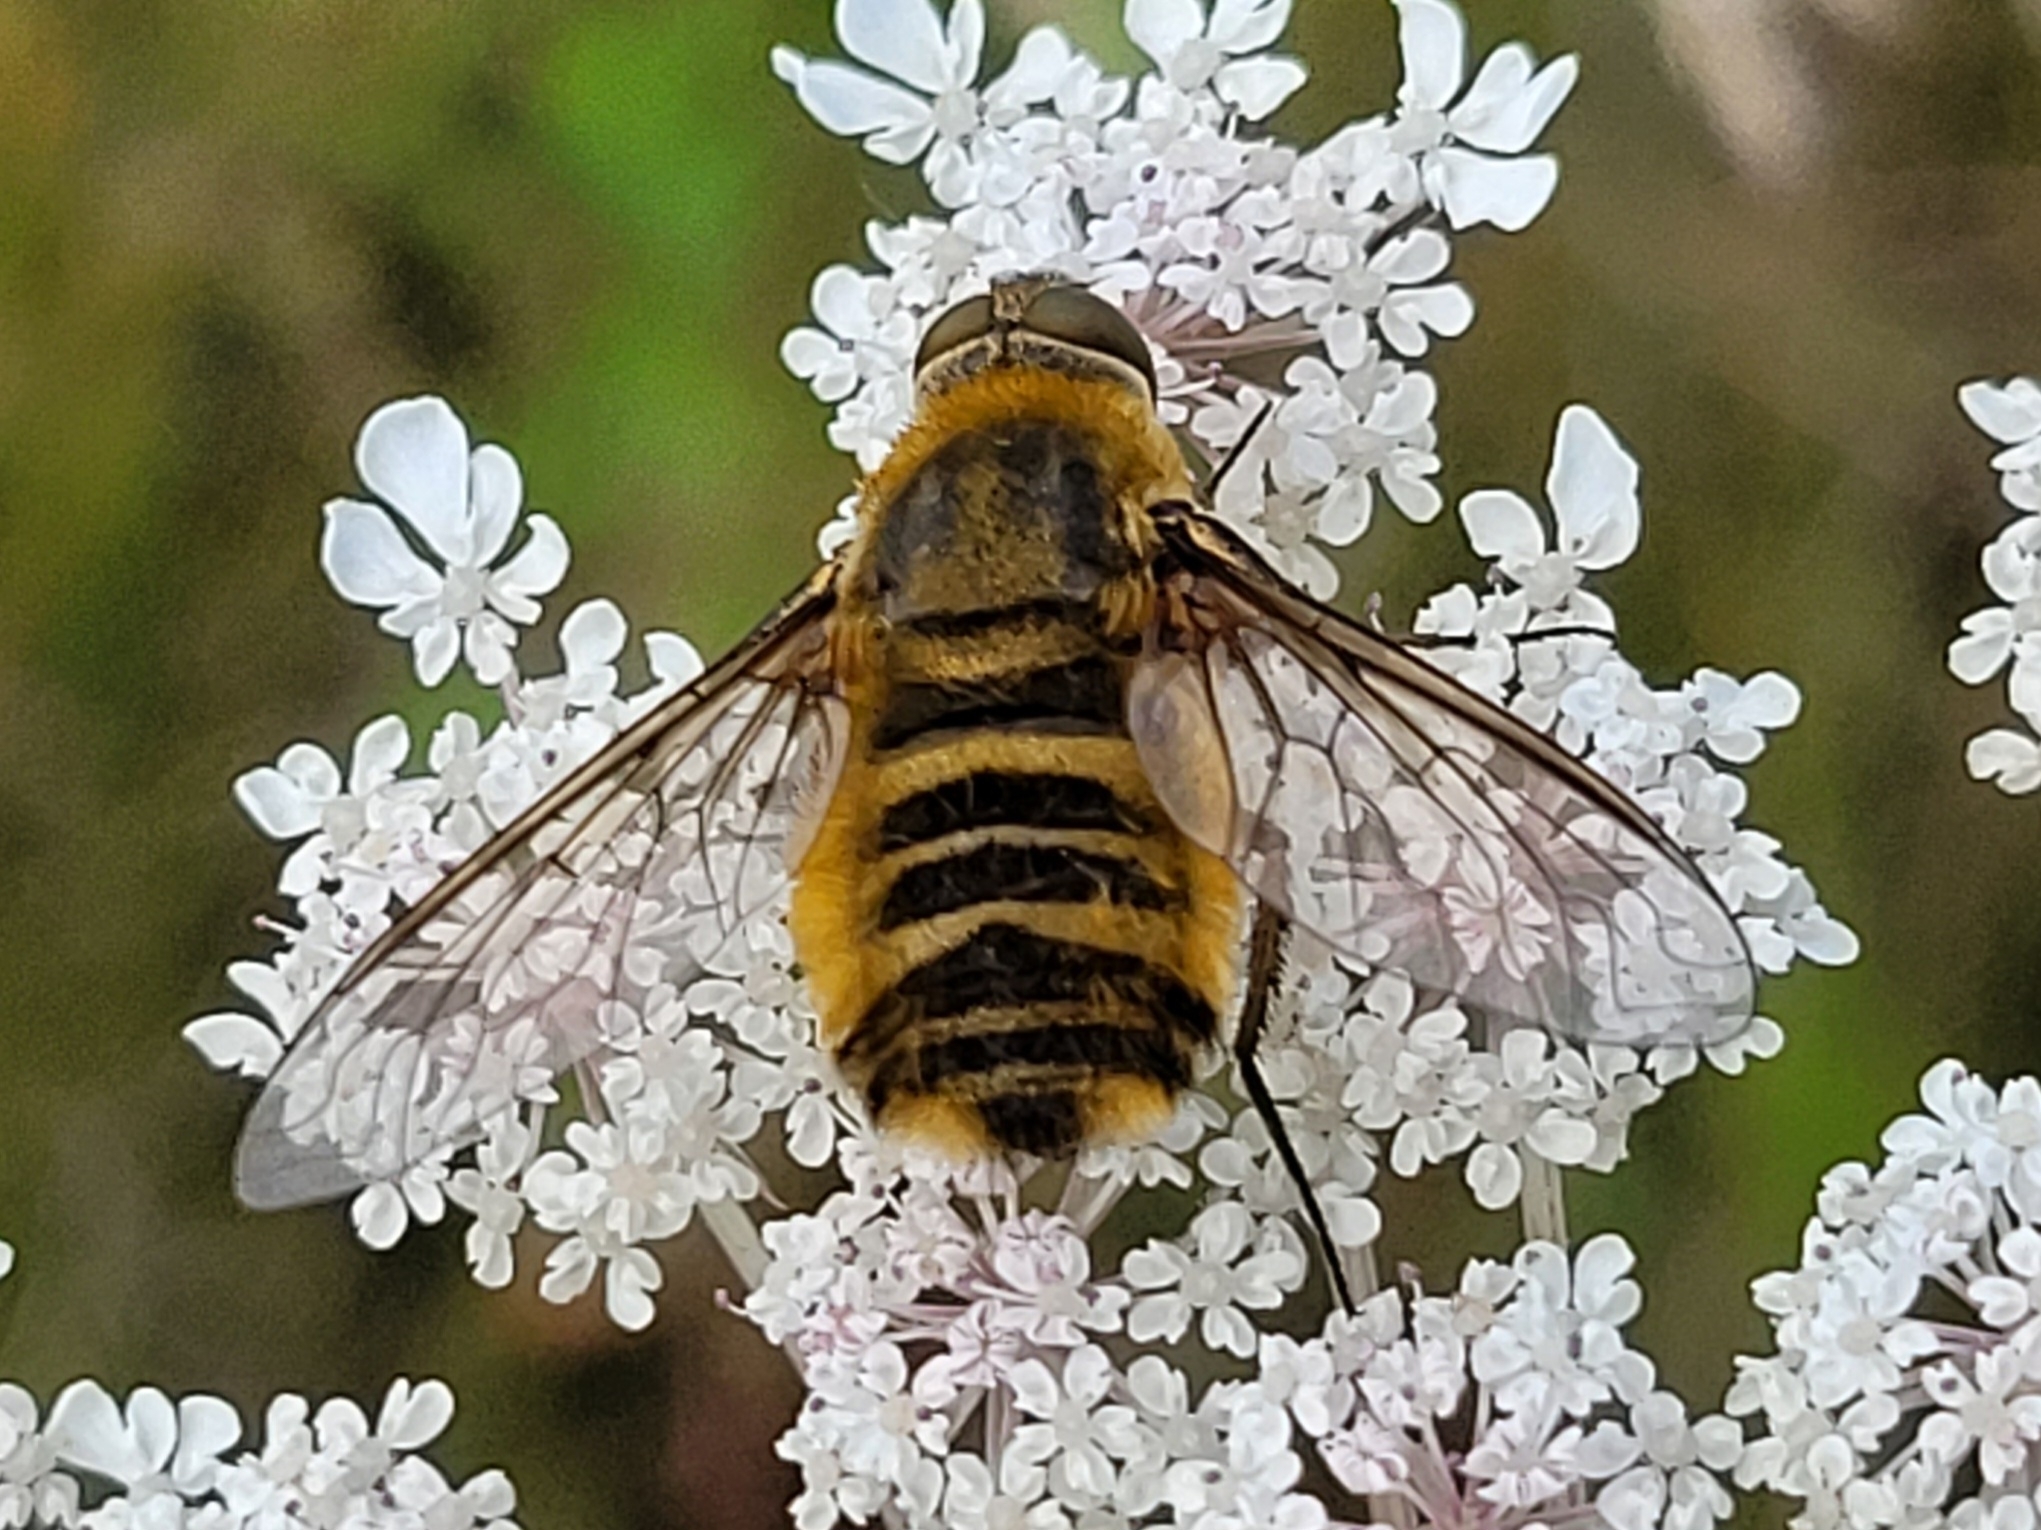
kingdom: Animalia
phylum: Arthropoda
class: Insecta
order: Diptera
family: Bombyliidae
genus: Villa
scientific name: Villa hottentotta
